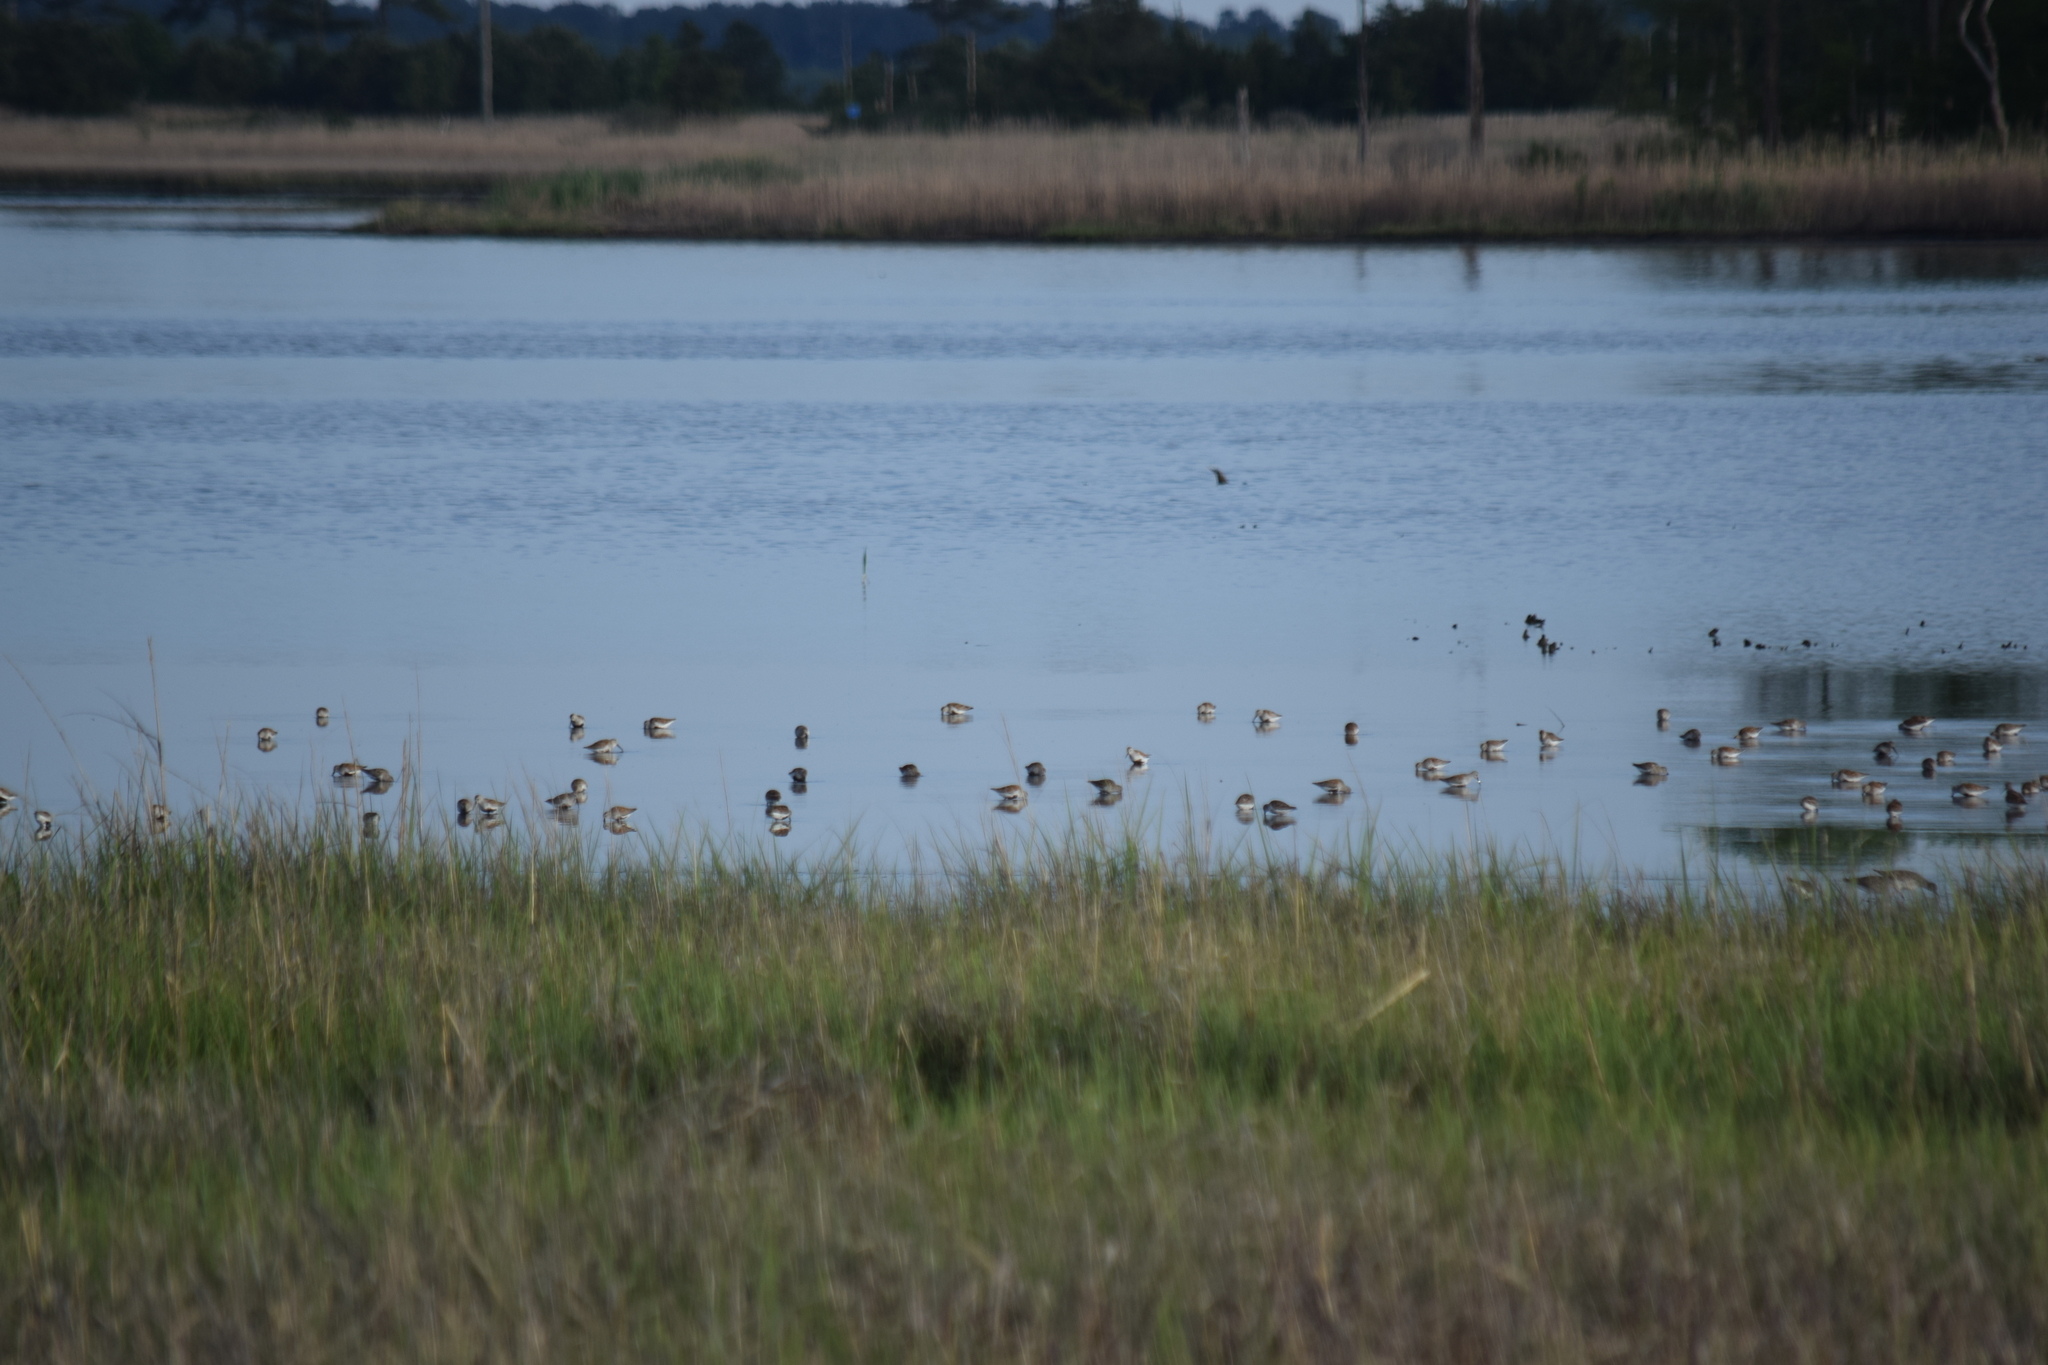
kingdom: Animalia
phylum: Chordata
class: Aves
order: Charadriiformes
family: Scolopacidae
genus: Calidris
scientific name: Calidris alpina
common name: Dunlin
